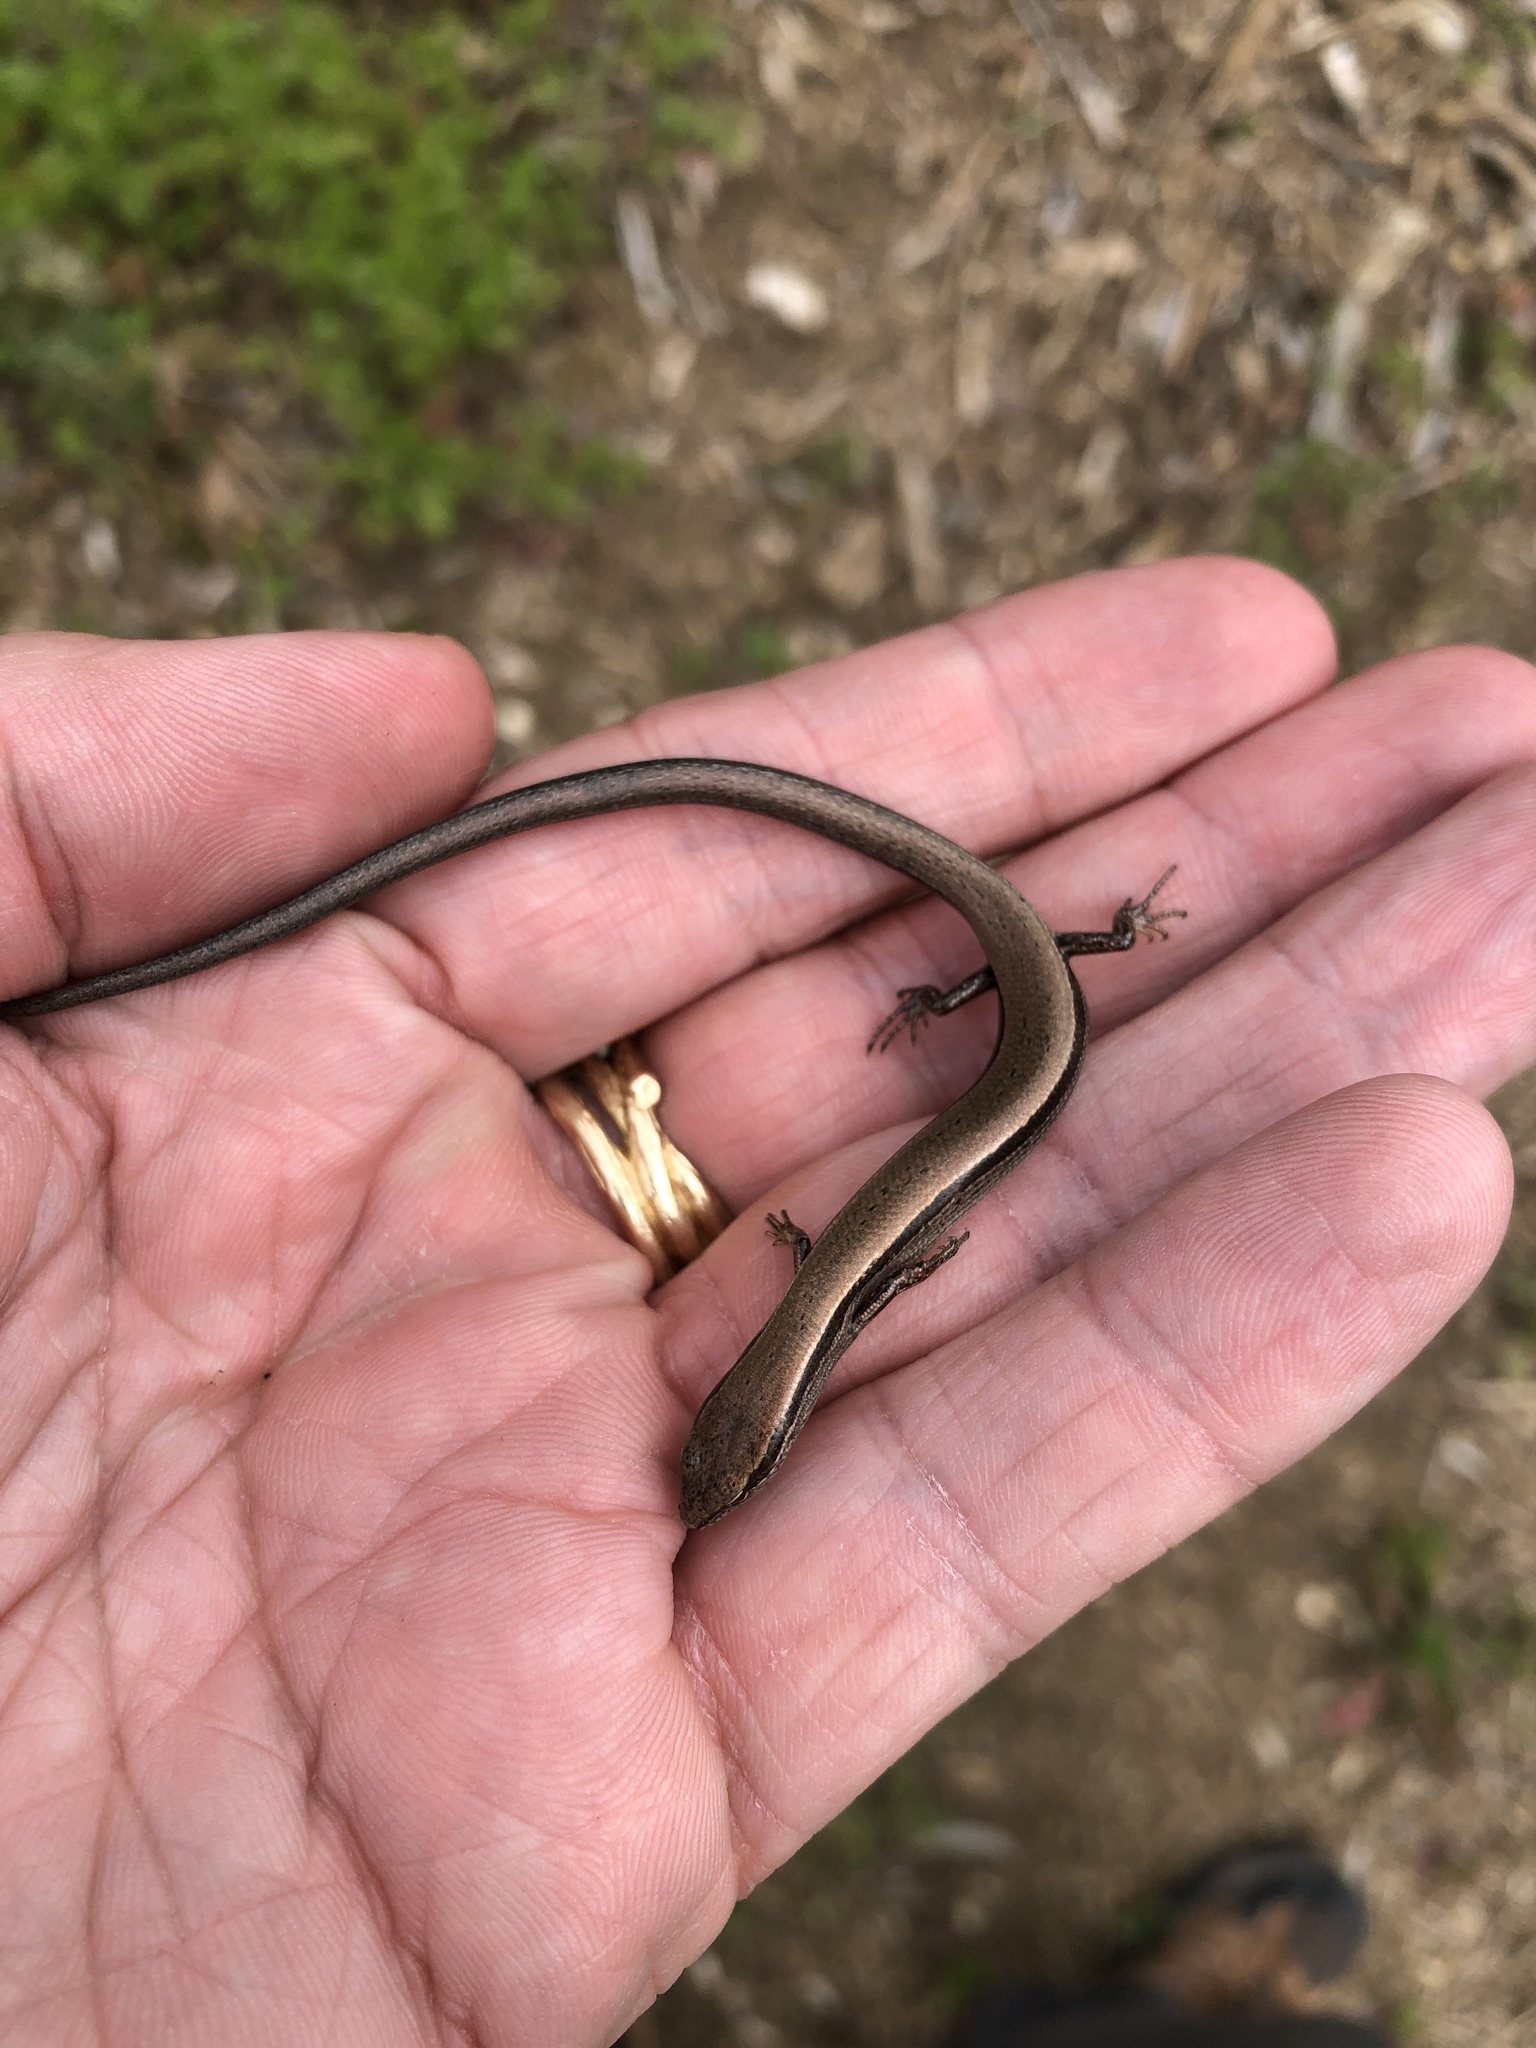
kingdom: Animalia
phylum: Chordata
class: Squamata
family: Scincidae
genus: Scincella
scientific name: Scincella lateralis
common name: Ground skink
